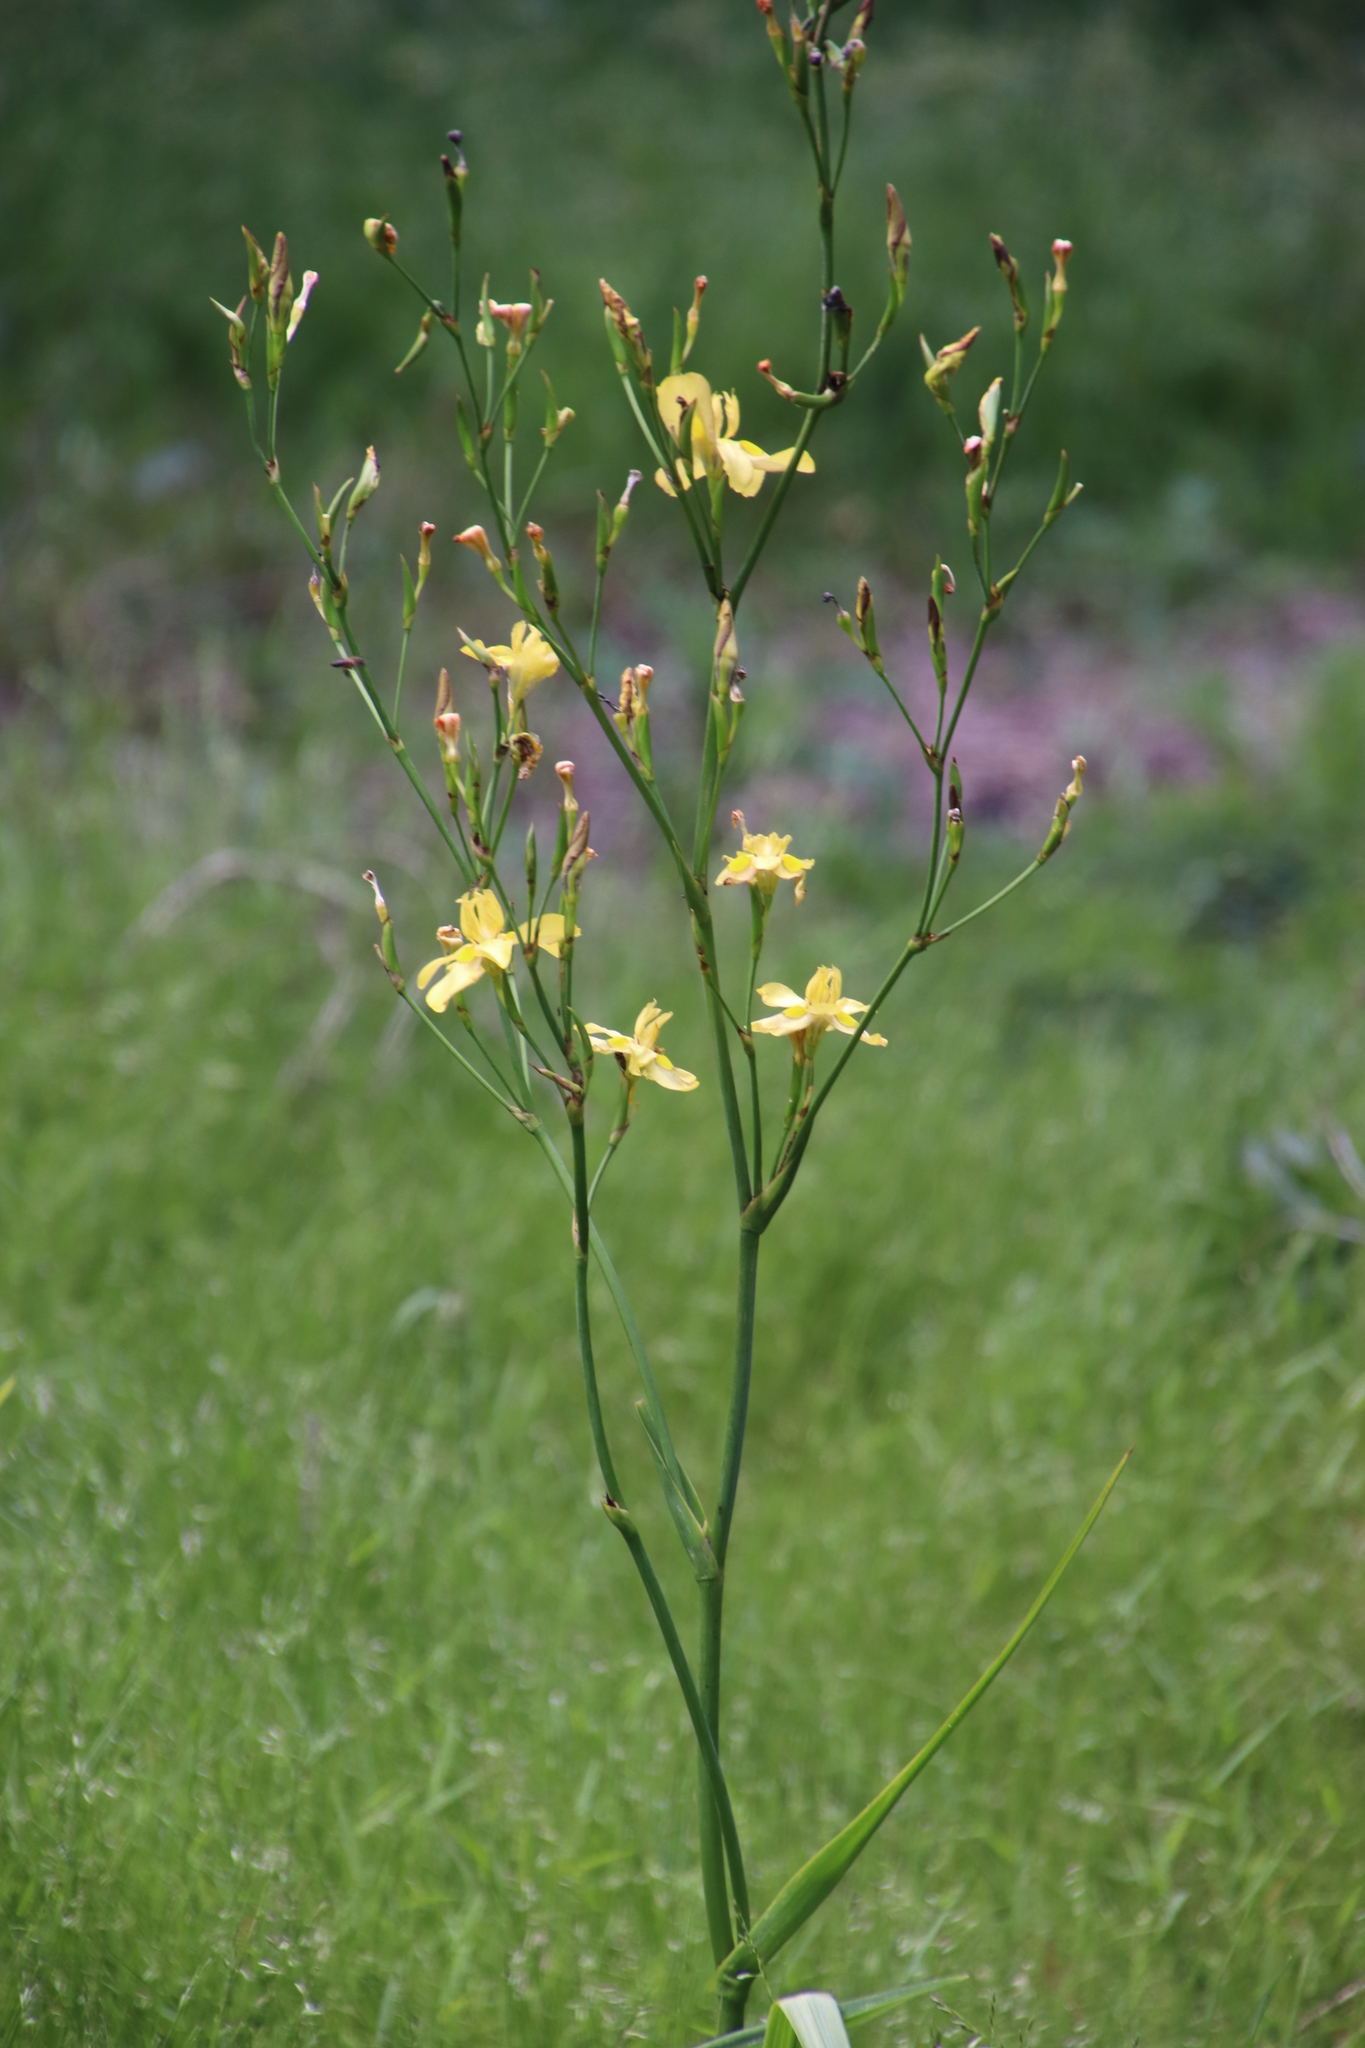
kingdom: Plantae
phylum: Tracheophyta
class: Liliopsida
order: Asparagales
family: Iridaceae
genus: Moraea
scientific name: Moraea ramosissima
